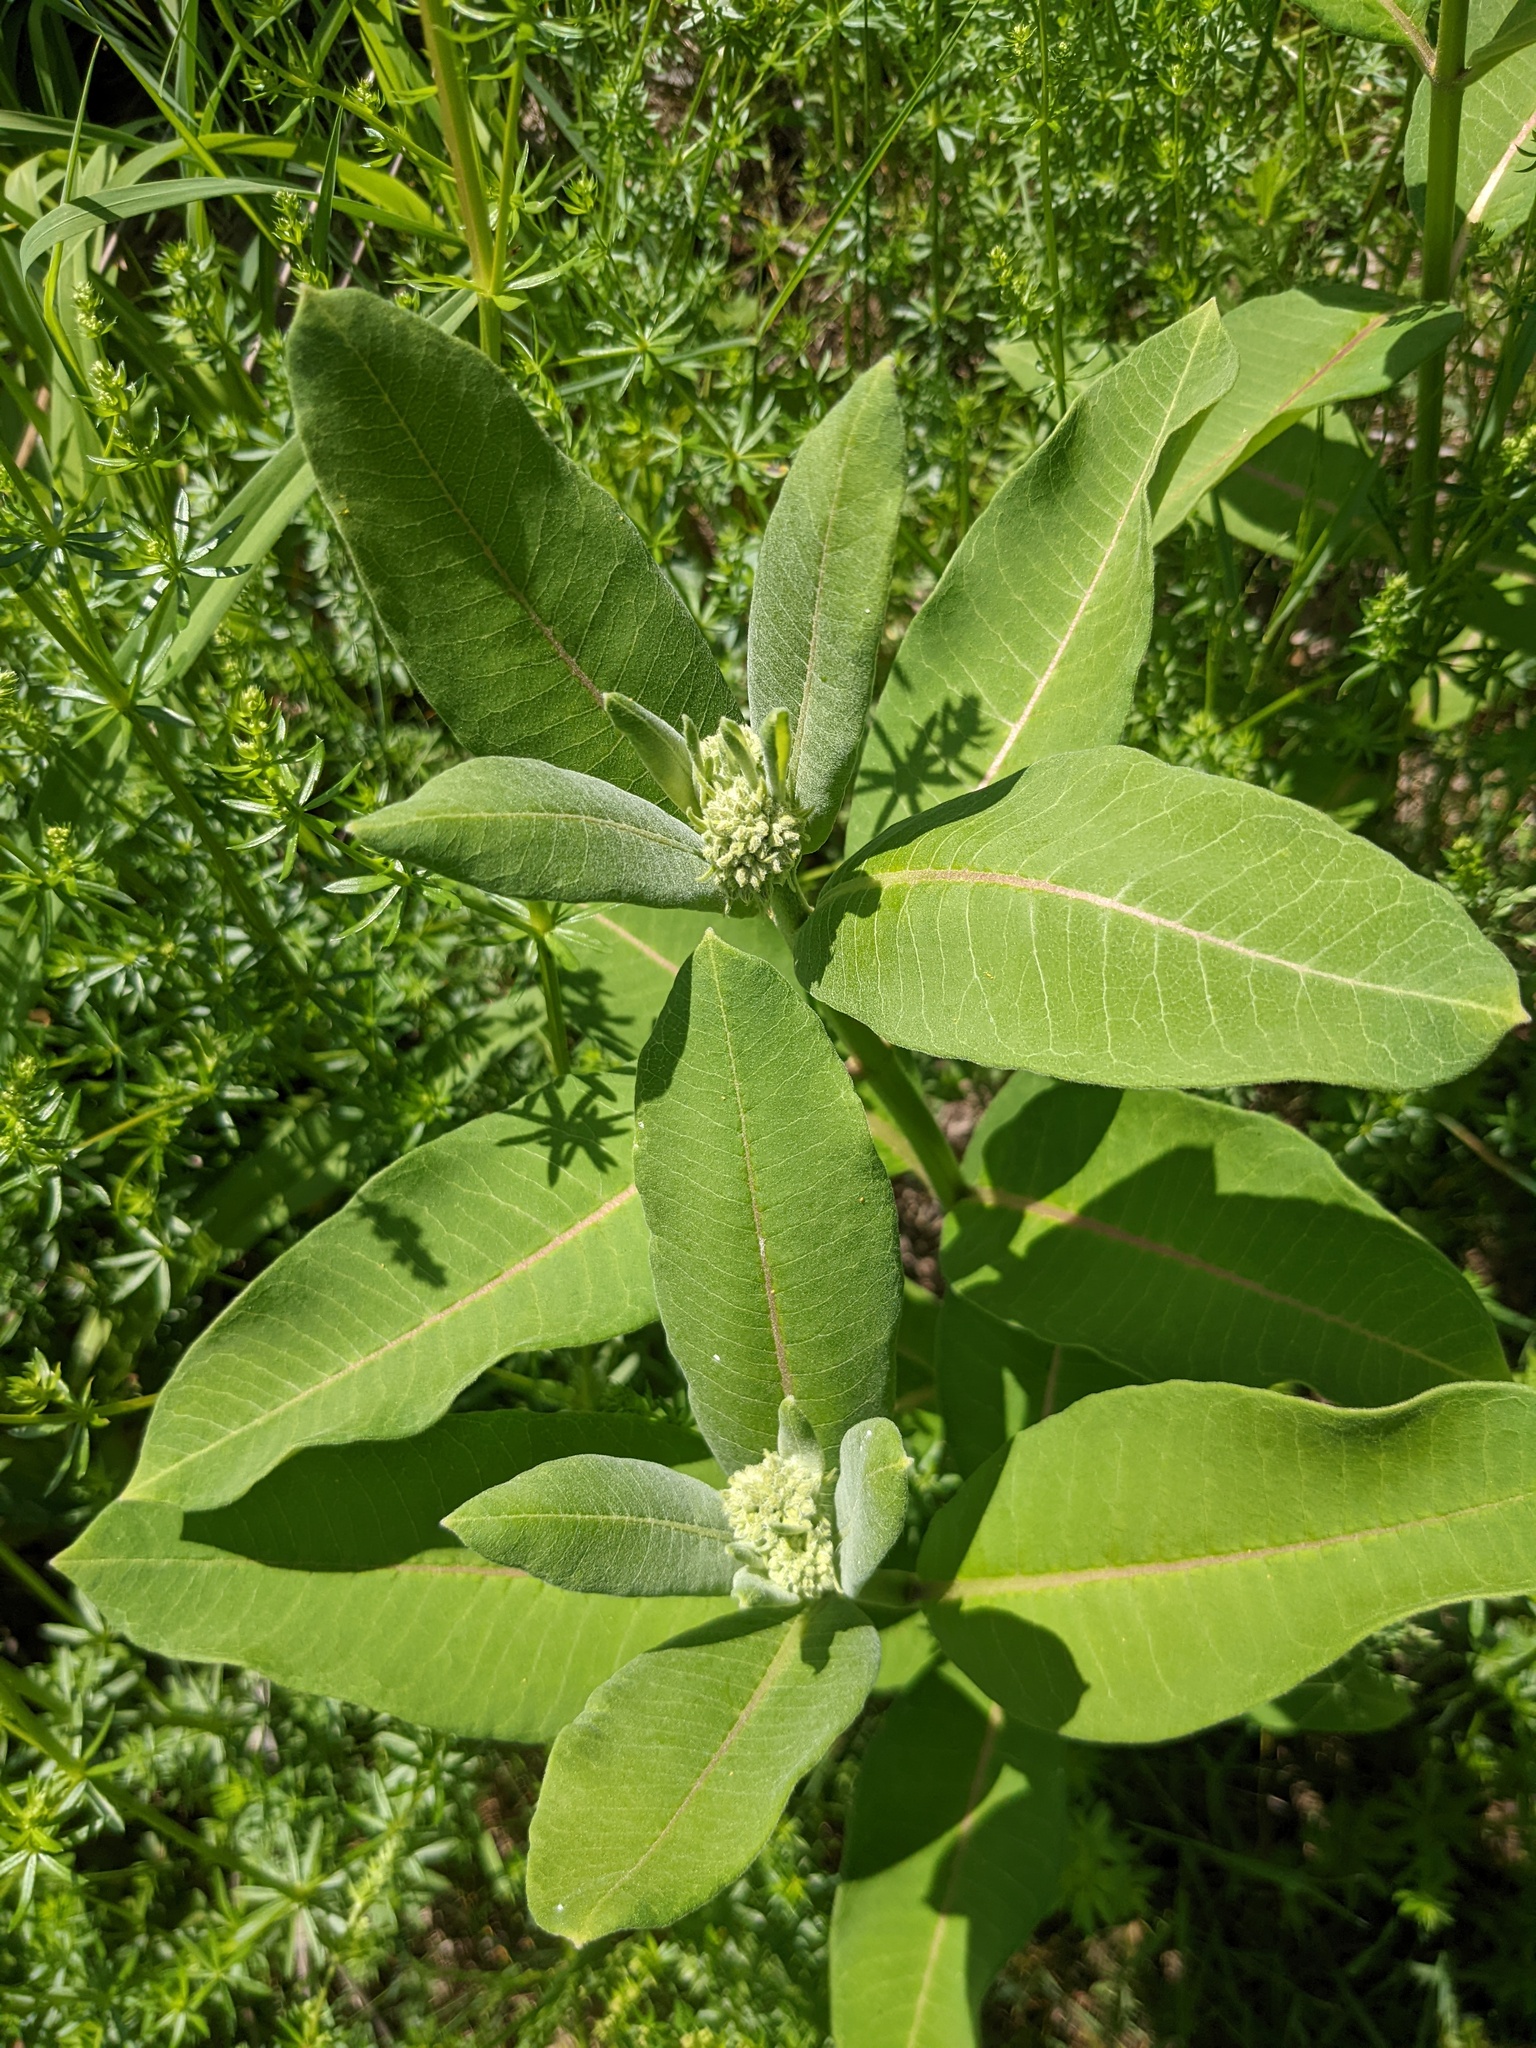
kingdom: Plantae
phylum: Tracheophyta
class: Magnoliopsida
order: Gentianales
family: Apocynaceae
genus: Asclepias
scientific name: Asclepias syriaca
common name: Common milkweed
